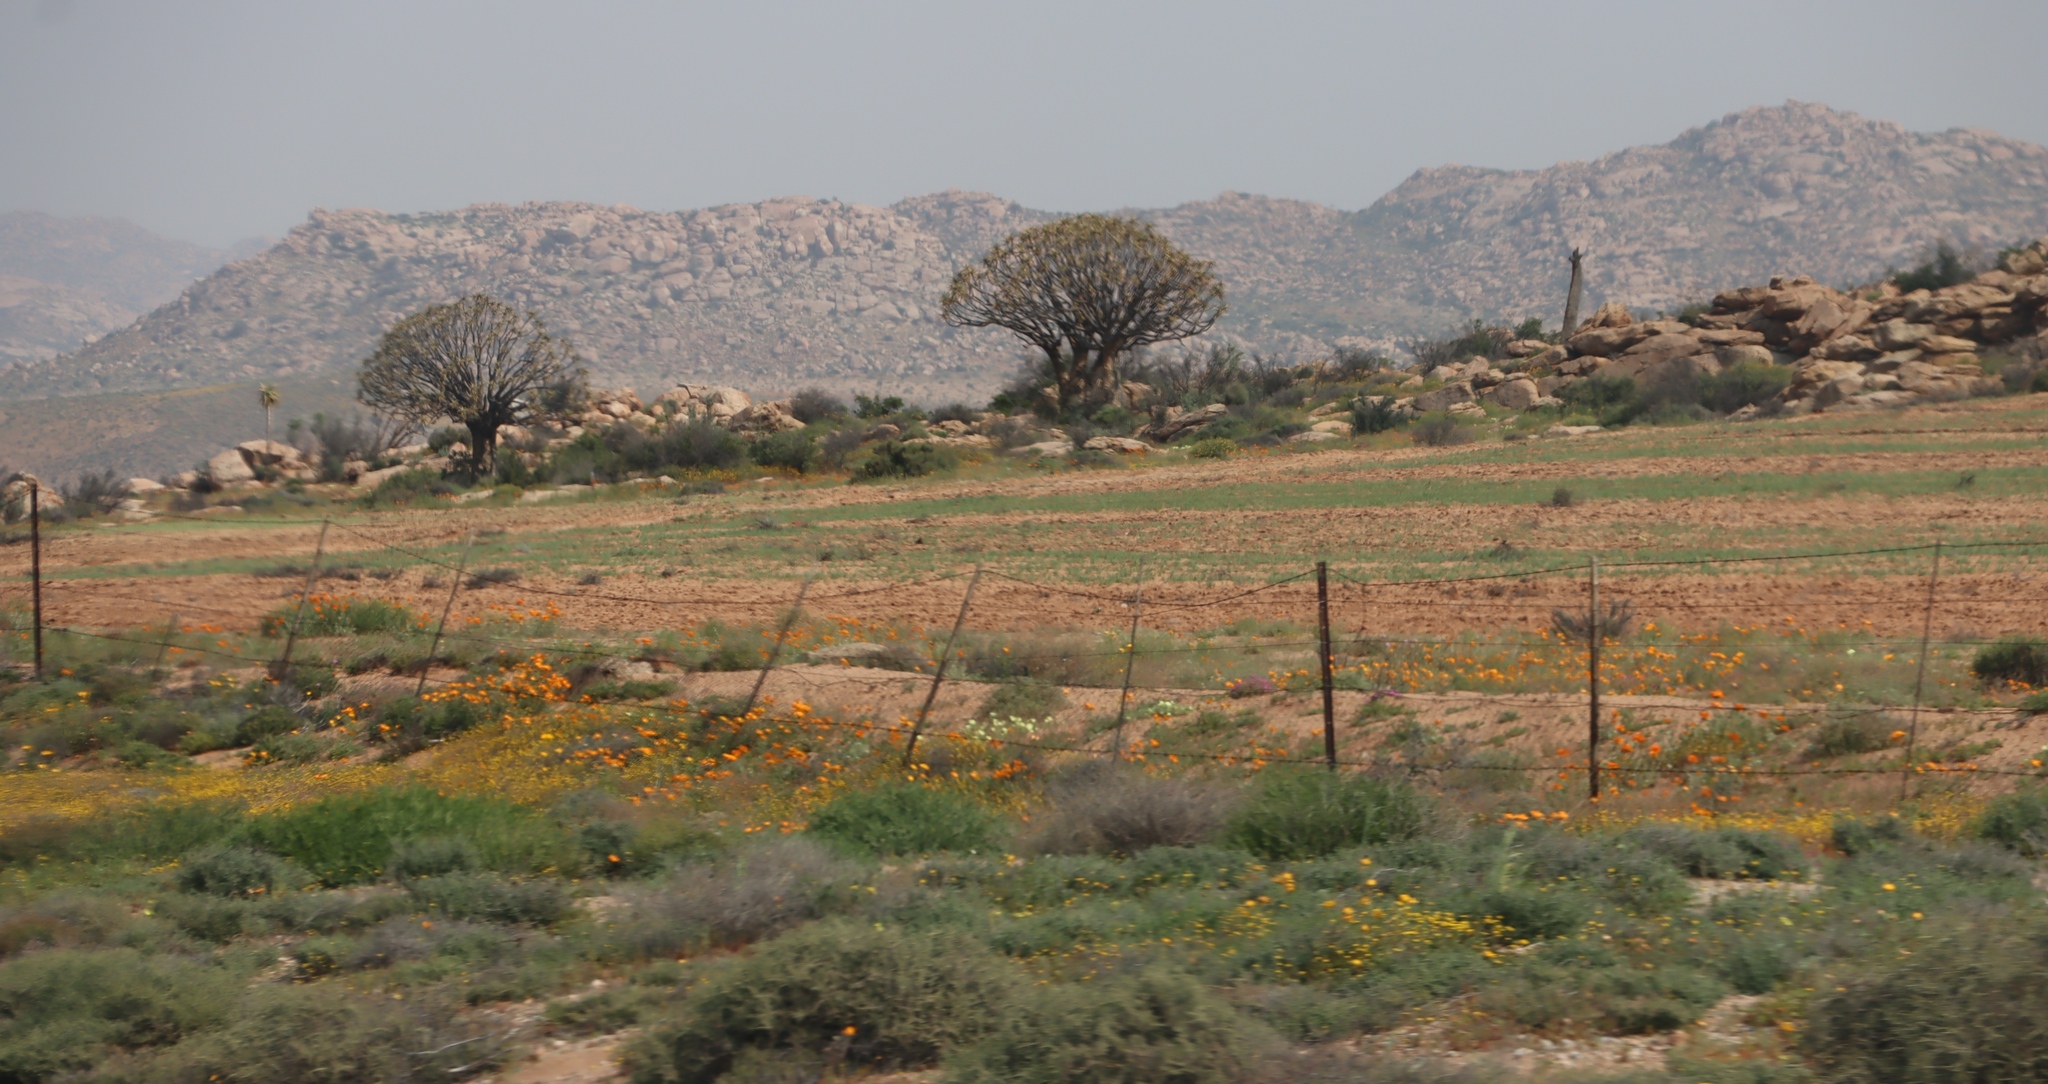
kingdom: Plantae
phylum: Tracheophyta
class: Liliopsida
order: Asparagales
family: Asphodelaceae
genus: Aloidendron
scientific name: Aloidendron dichotomum
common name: Quiver tree
